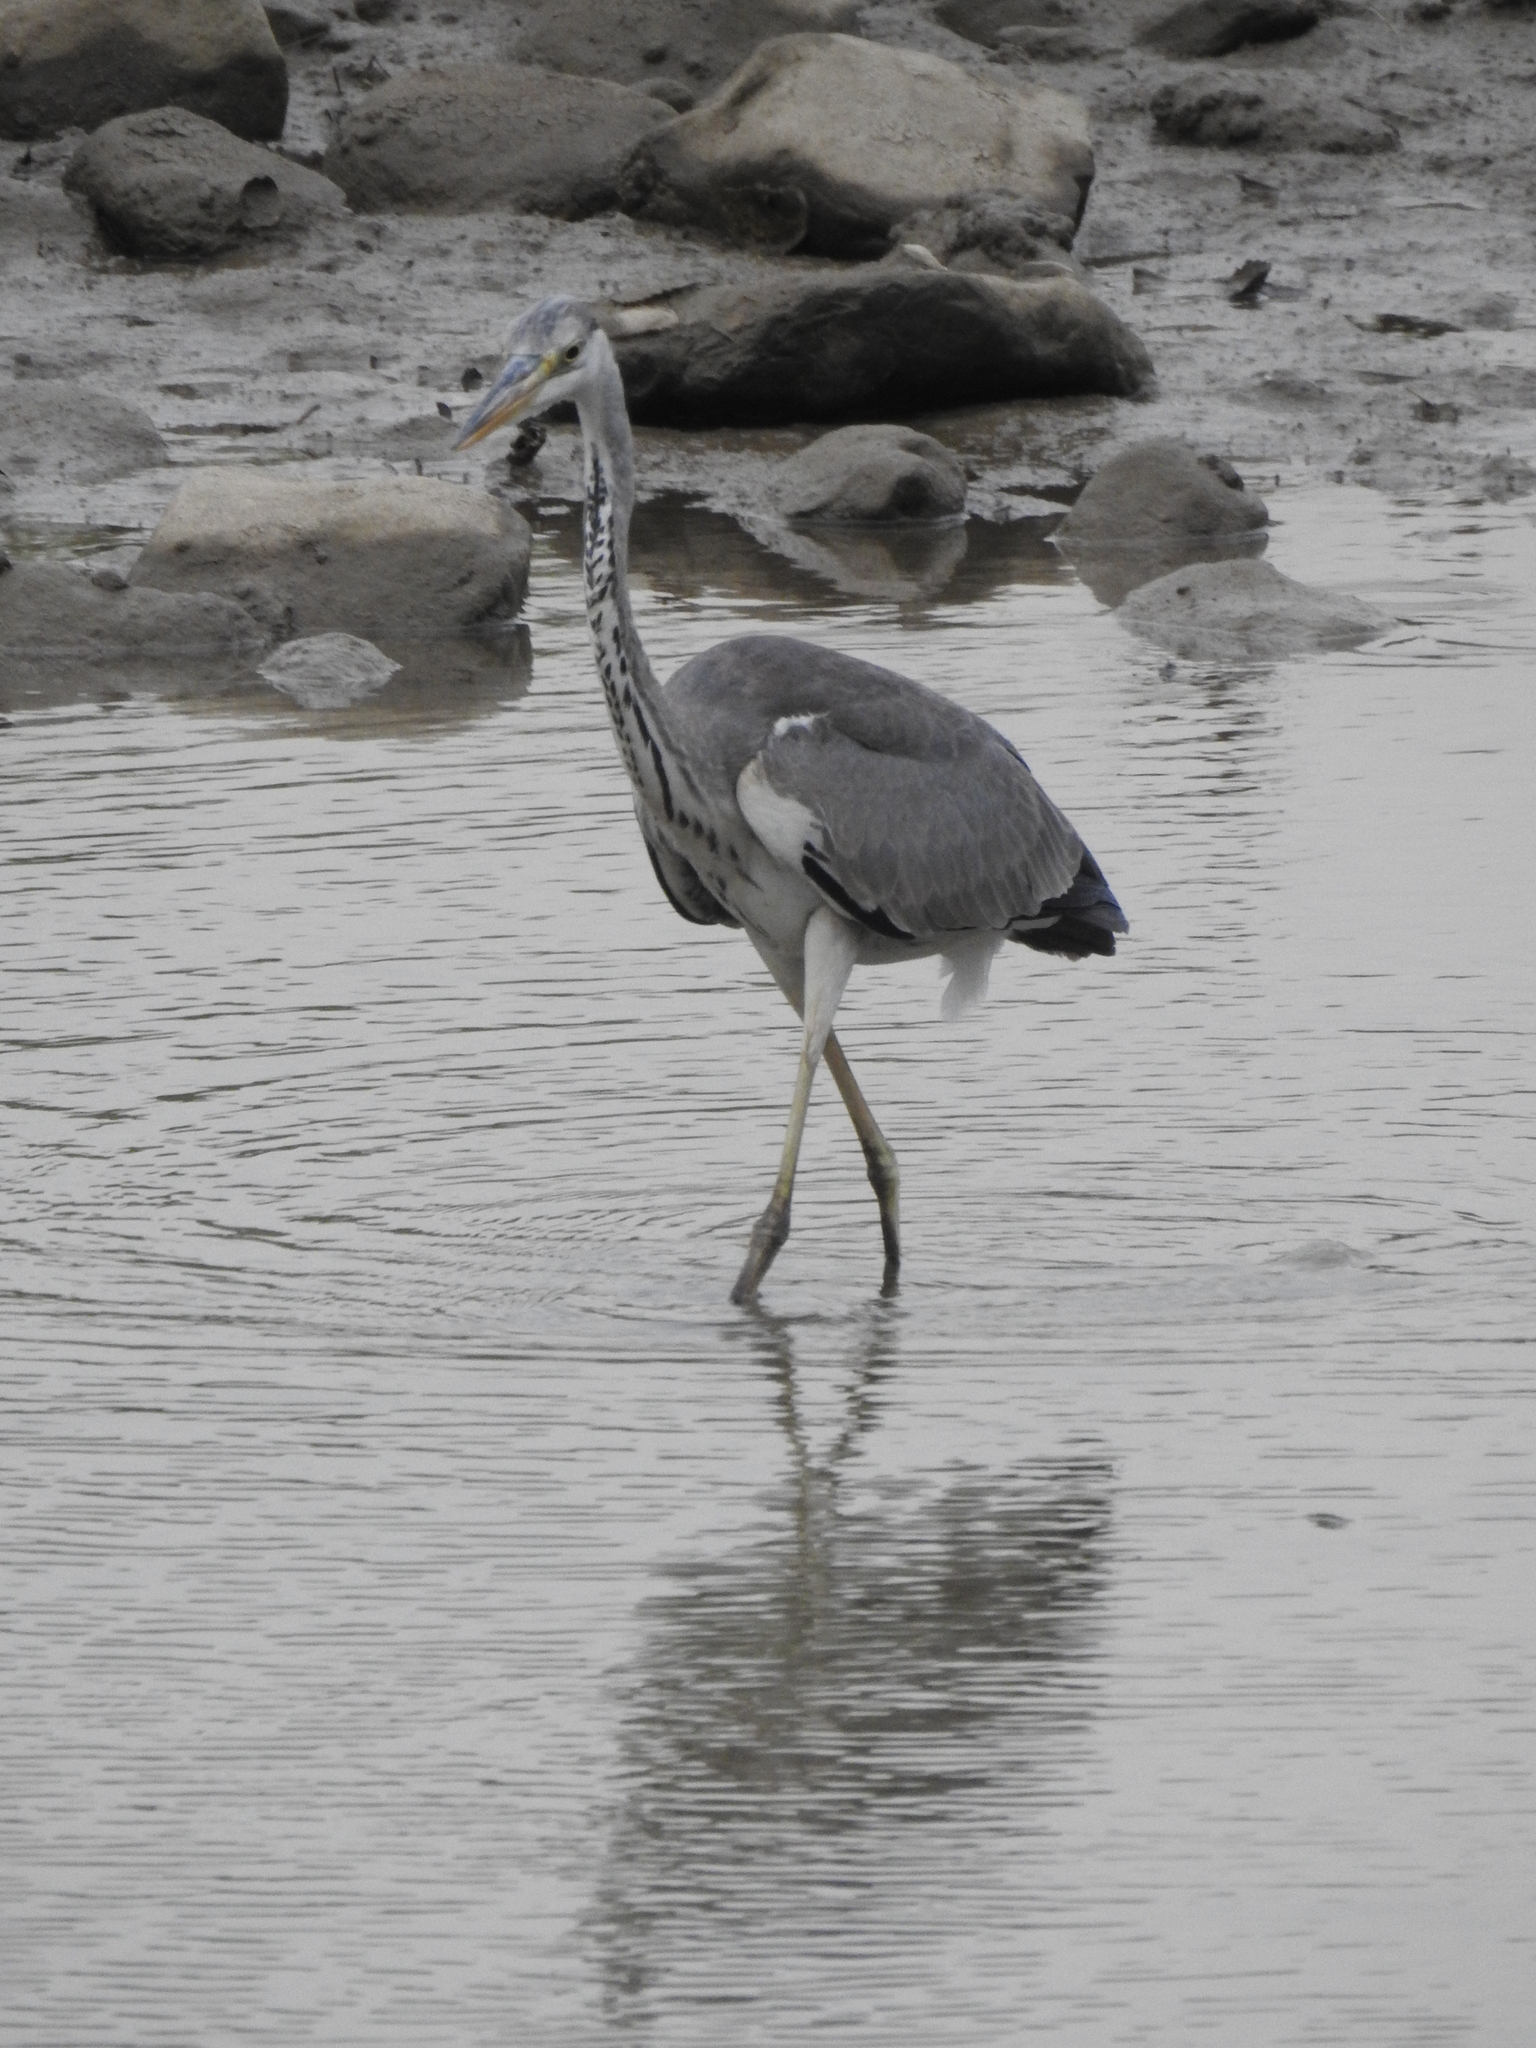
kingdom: Animalia
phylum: Chordata
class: Aves
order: Pelecaniformes
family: Ardeidae
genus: Ardea
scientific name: Ardea cinerea
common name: Grey heron
